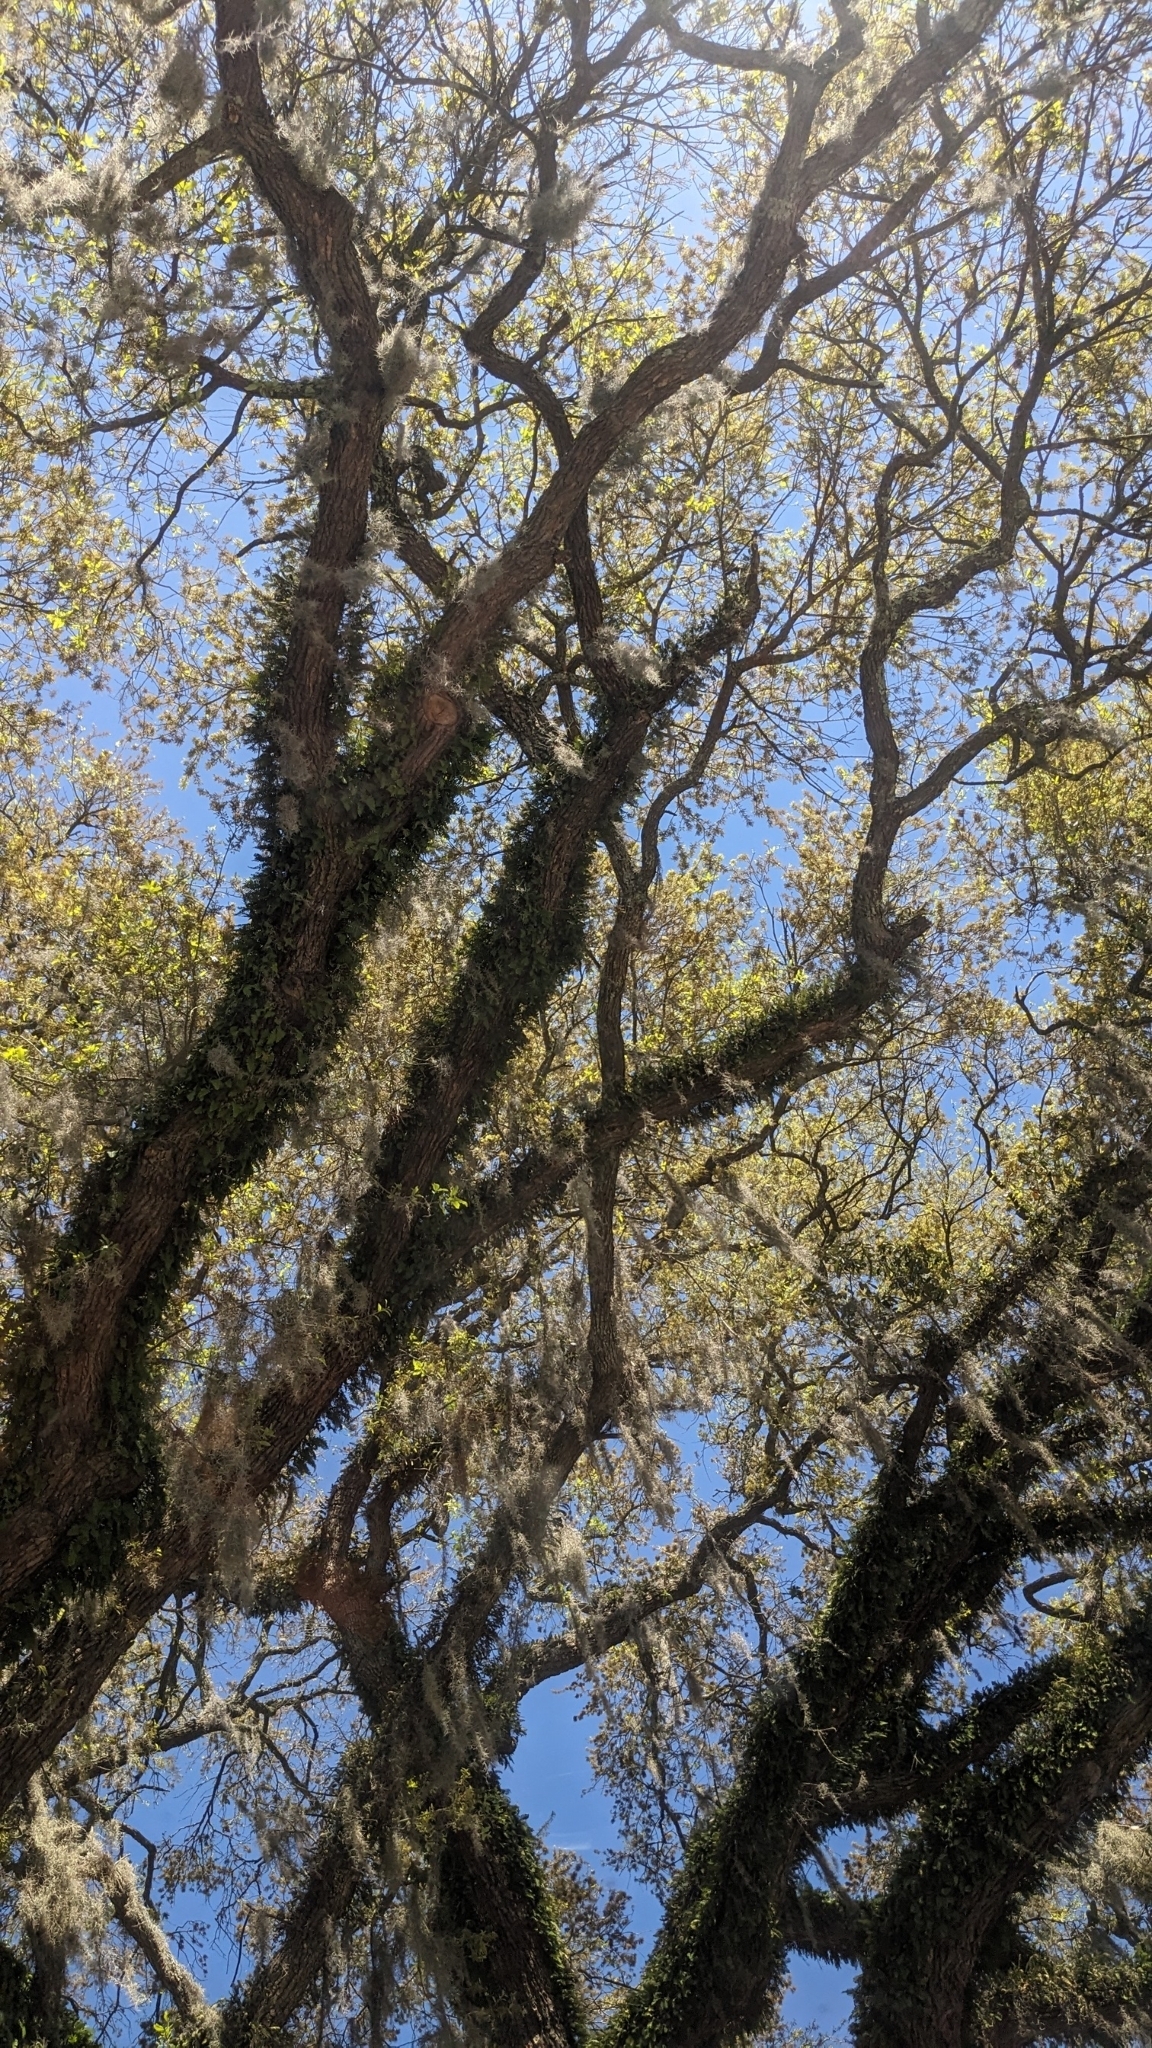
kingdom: Plantae
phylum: Tracheophyta
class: Liliopsida
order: Poales
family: Bromeliaceae
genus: Tillandsia
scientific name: Tillandsia usneoides
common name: Spanish moss
